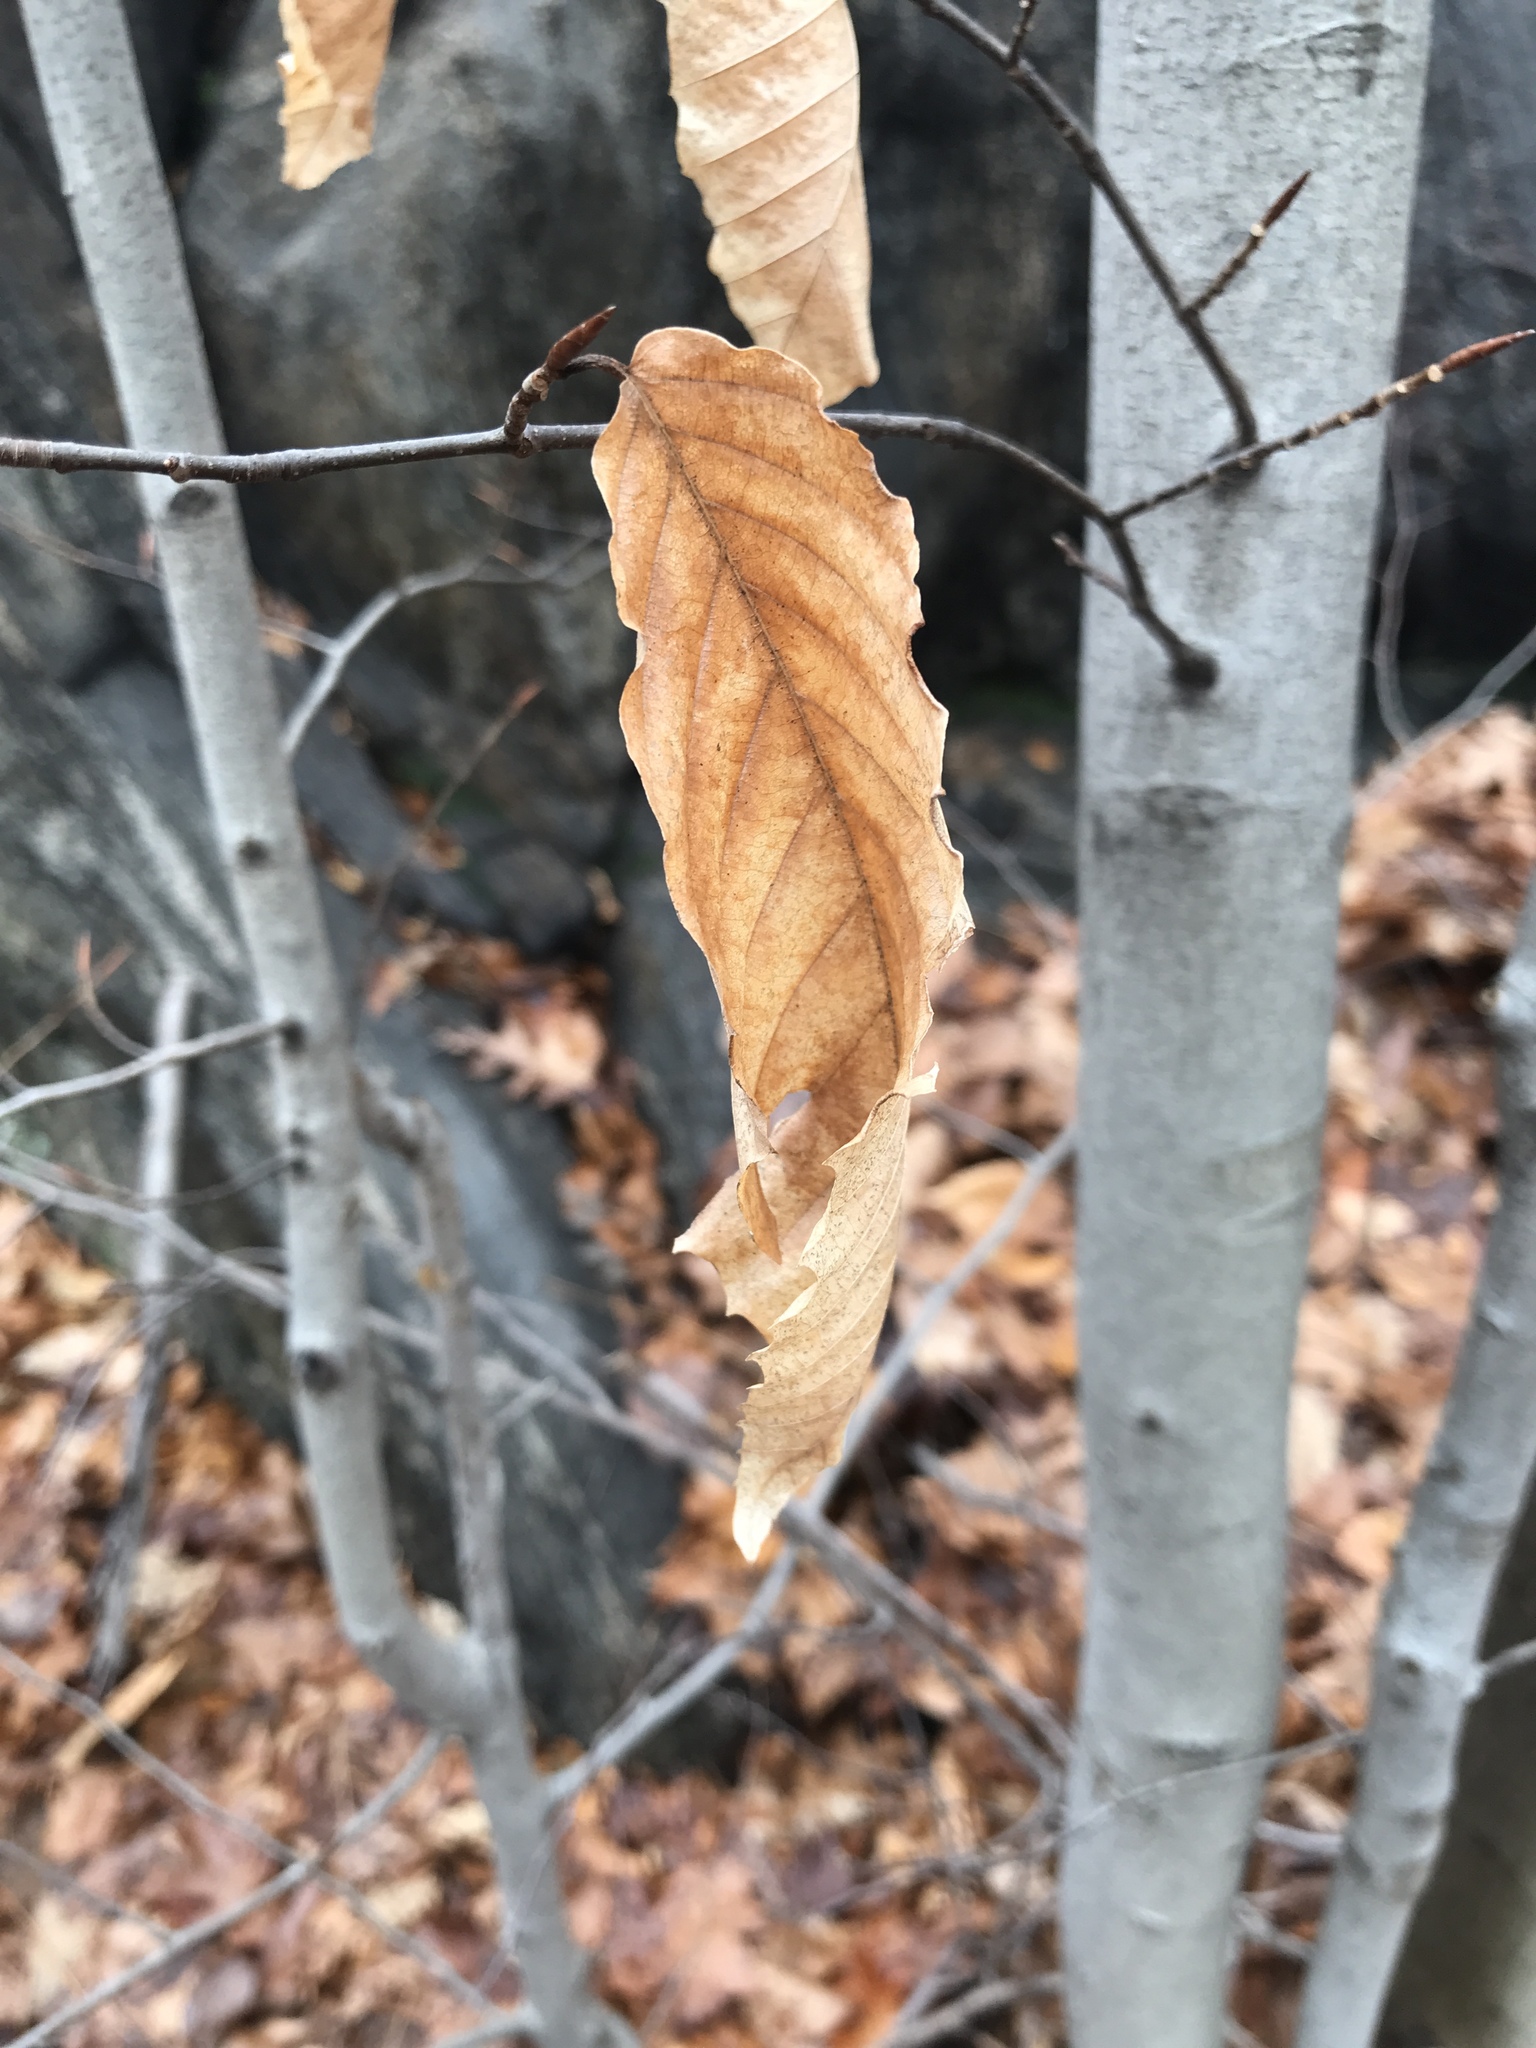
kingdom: Plantae
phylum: Tracheophyta
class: Magnoliopsida
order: Fagales
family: Fagaceae
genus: Fagus
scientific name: Fagus grandifolia
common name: American beech
